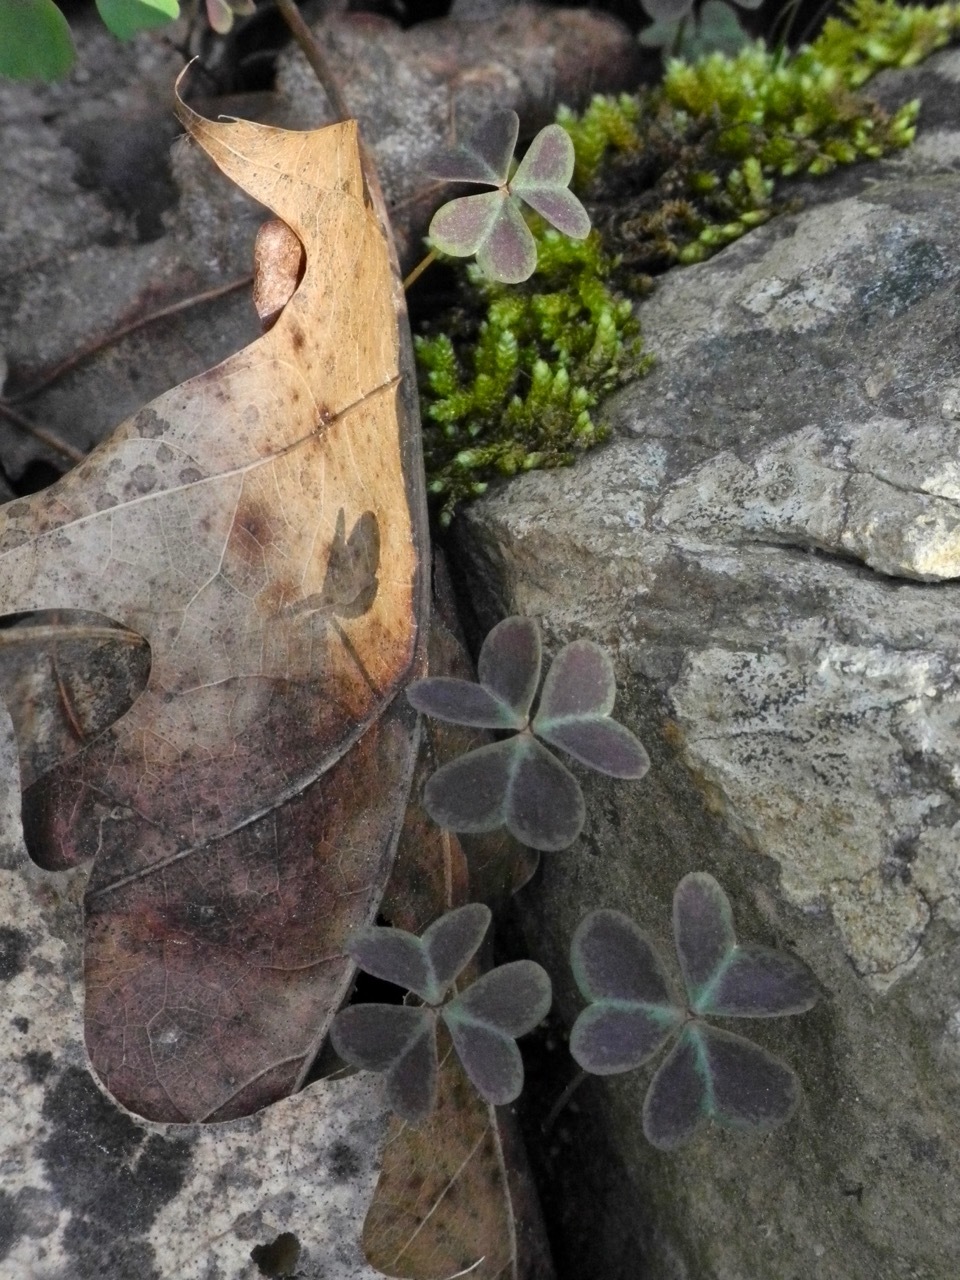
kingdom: Plantae
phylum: Tracheophyta
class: Magnoliopsida
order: Oxalidales
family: Oxalidaceae
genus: Oxalis
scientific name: Oxalis violacea
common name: Violet wood-sorrel
